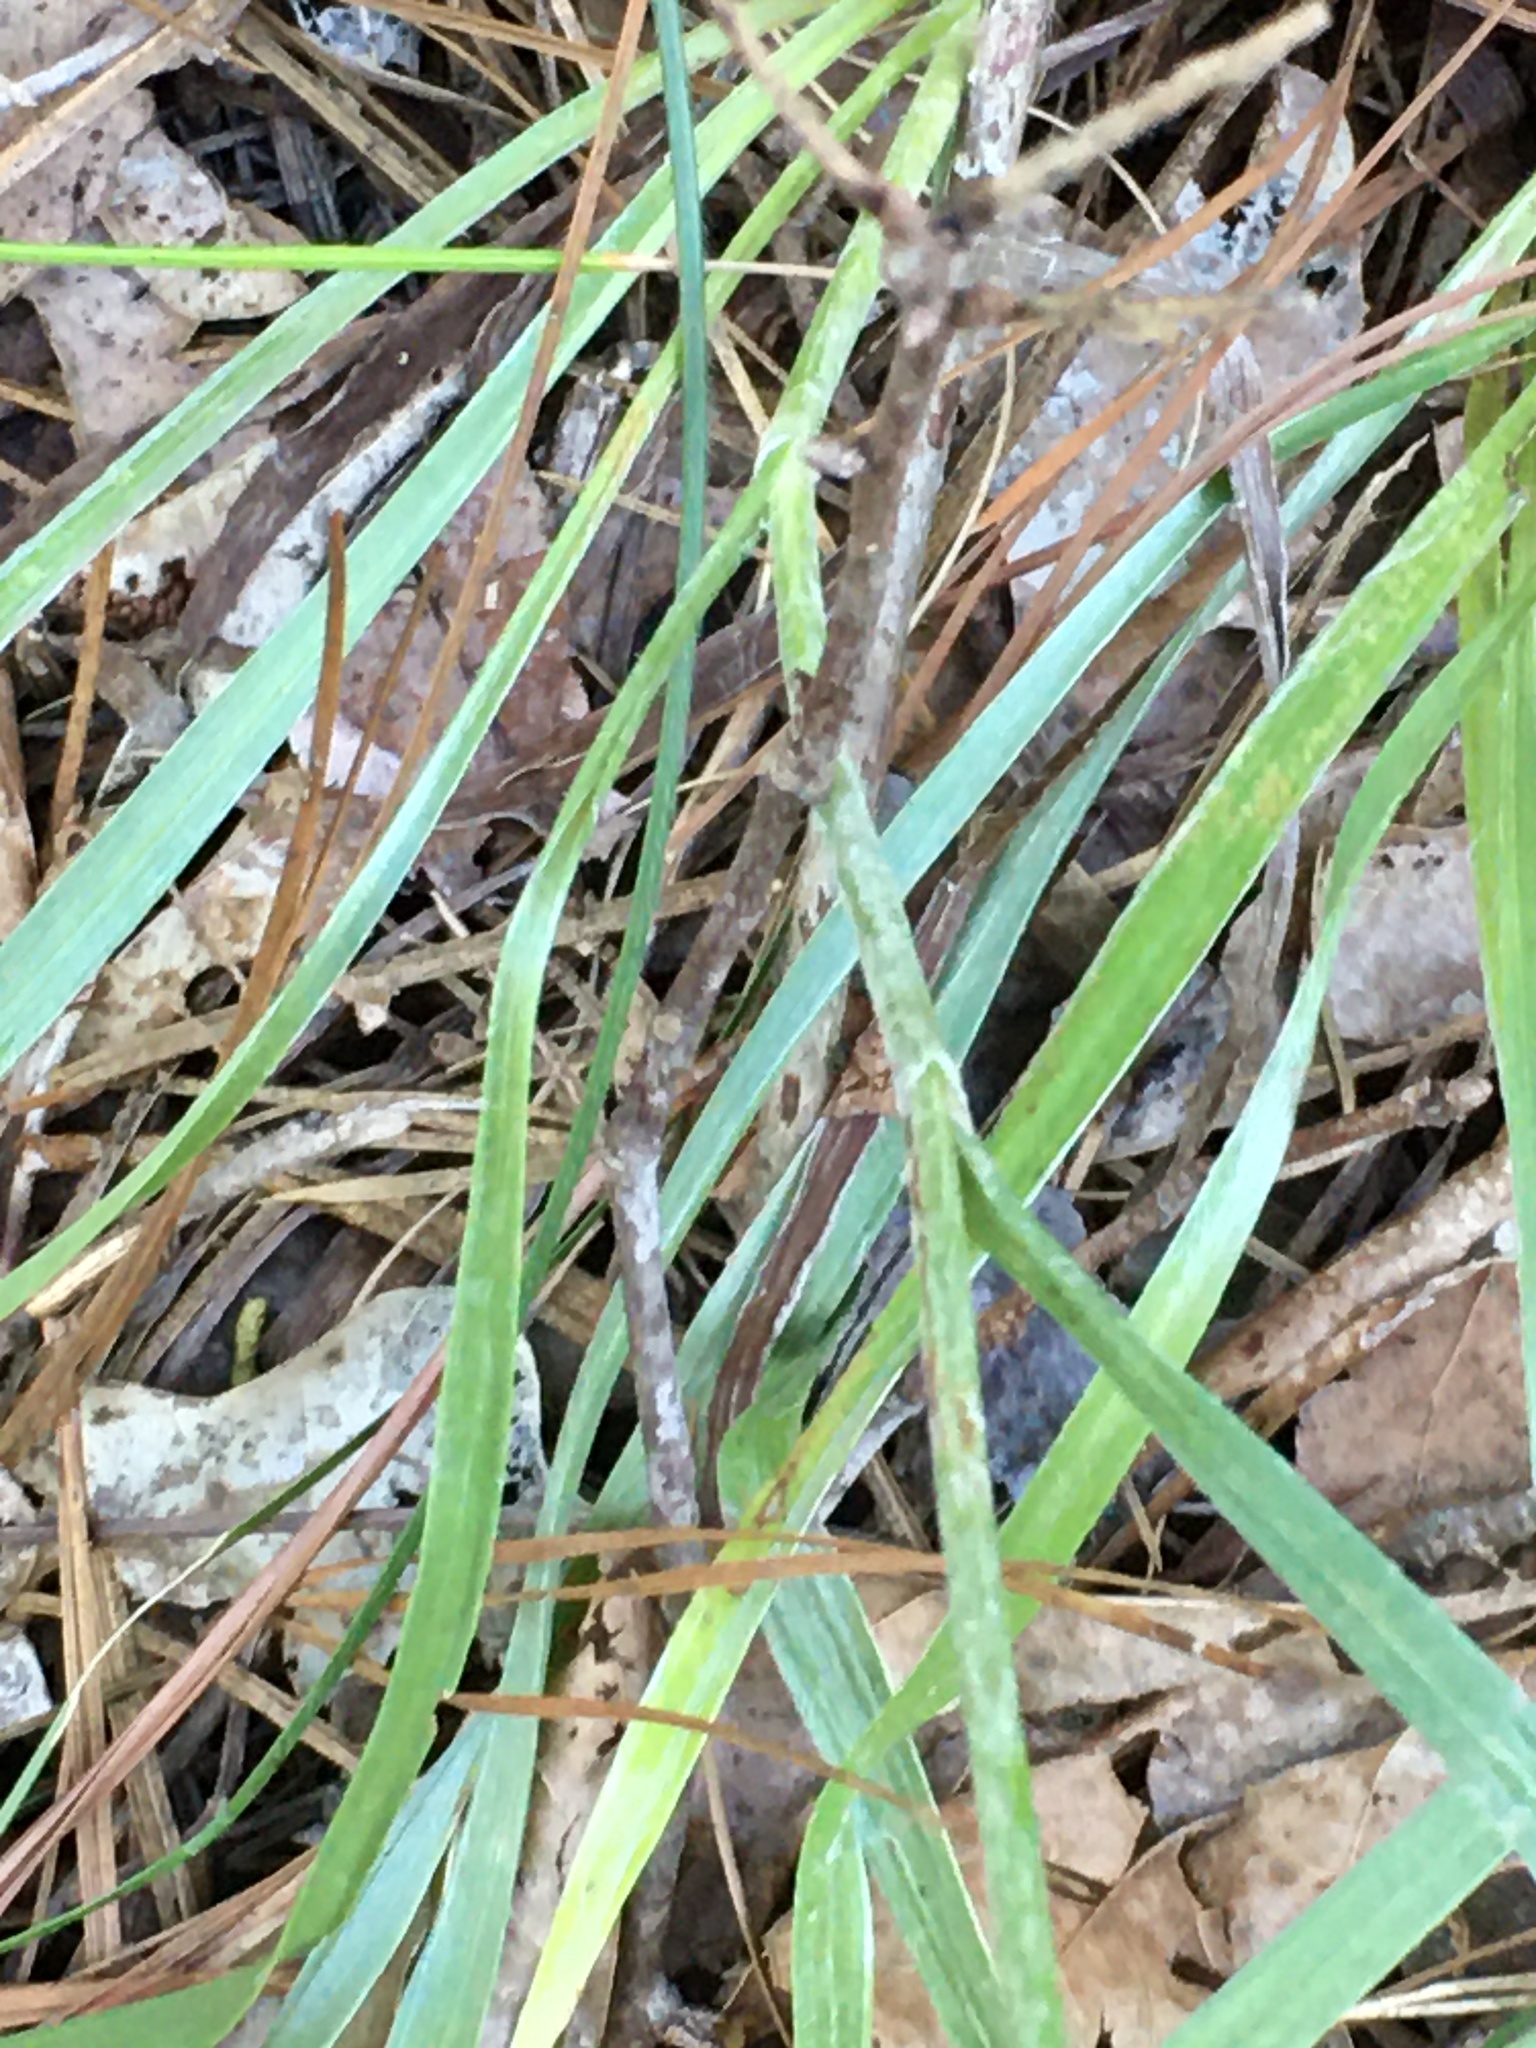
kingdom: Plantae
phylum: Tracheophyta
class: Magnoliopsida
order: Asterales
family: Asteraceae
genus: Pityopsis
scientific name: Pityopsis aspera
